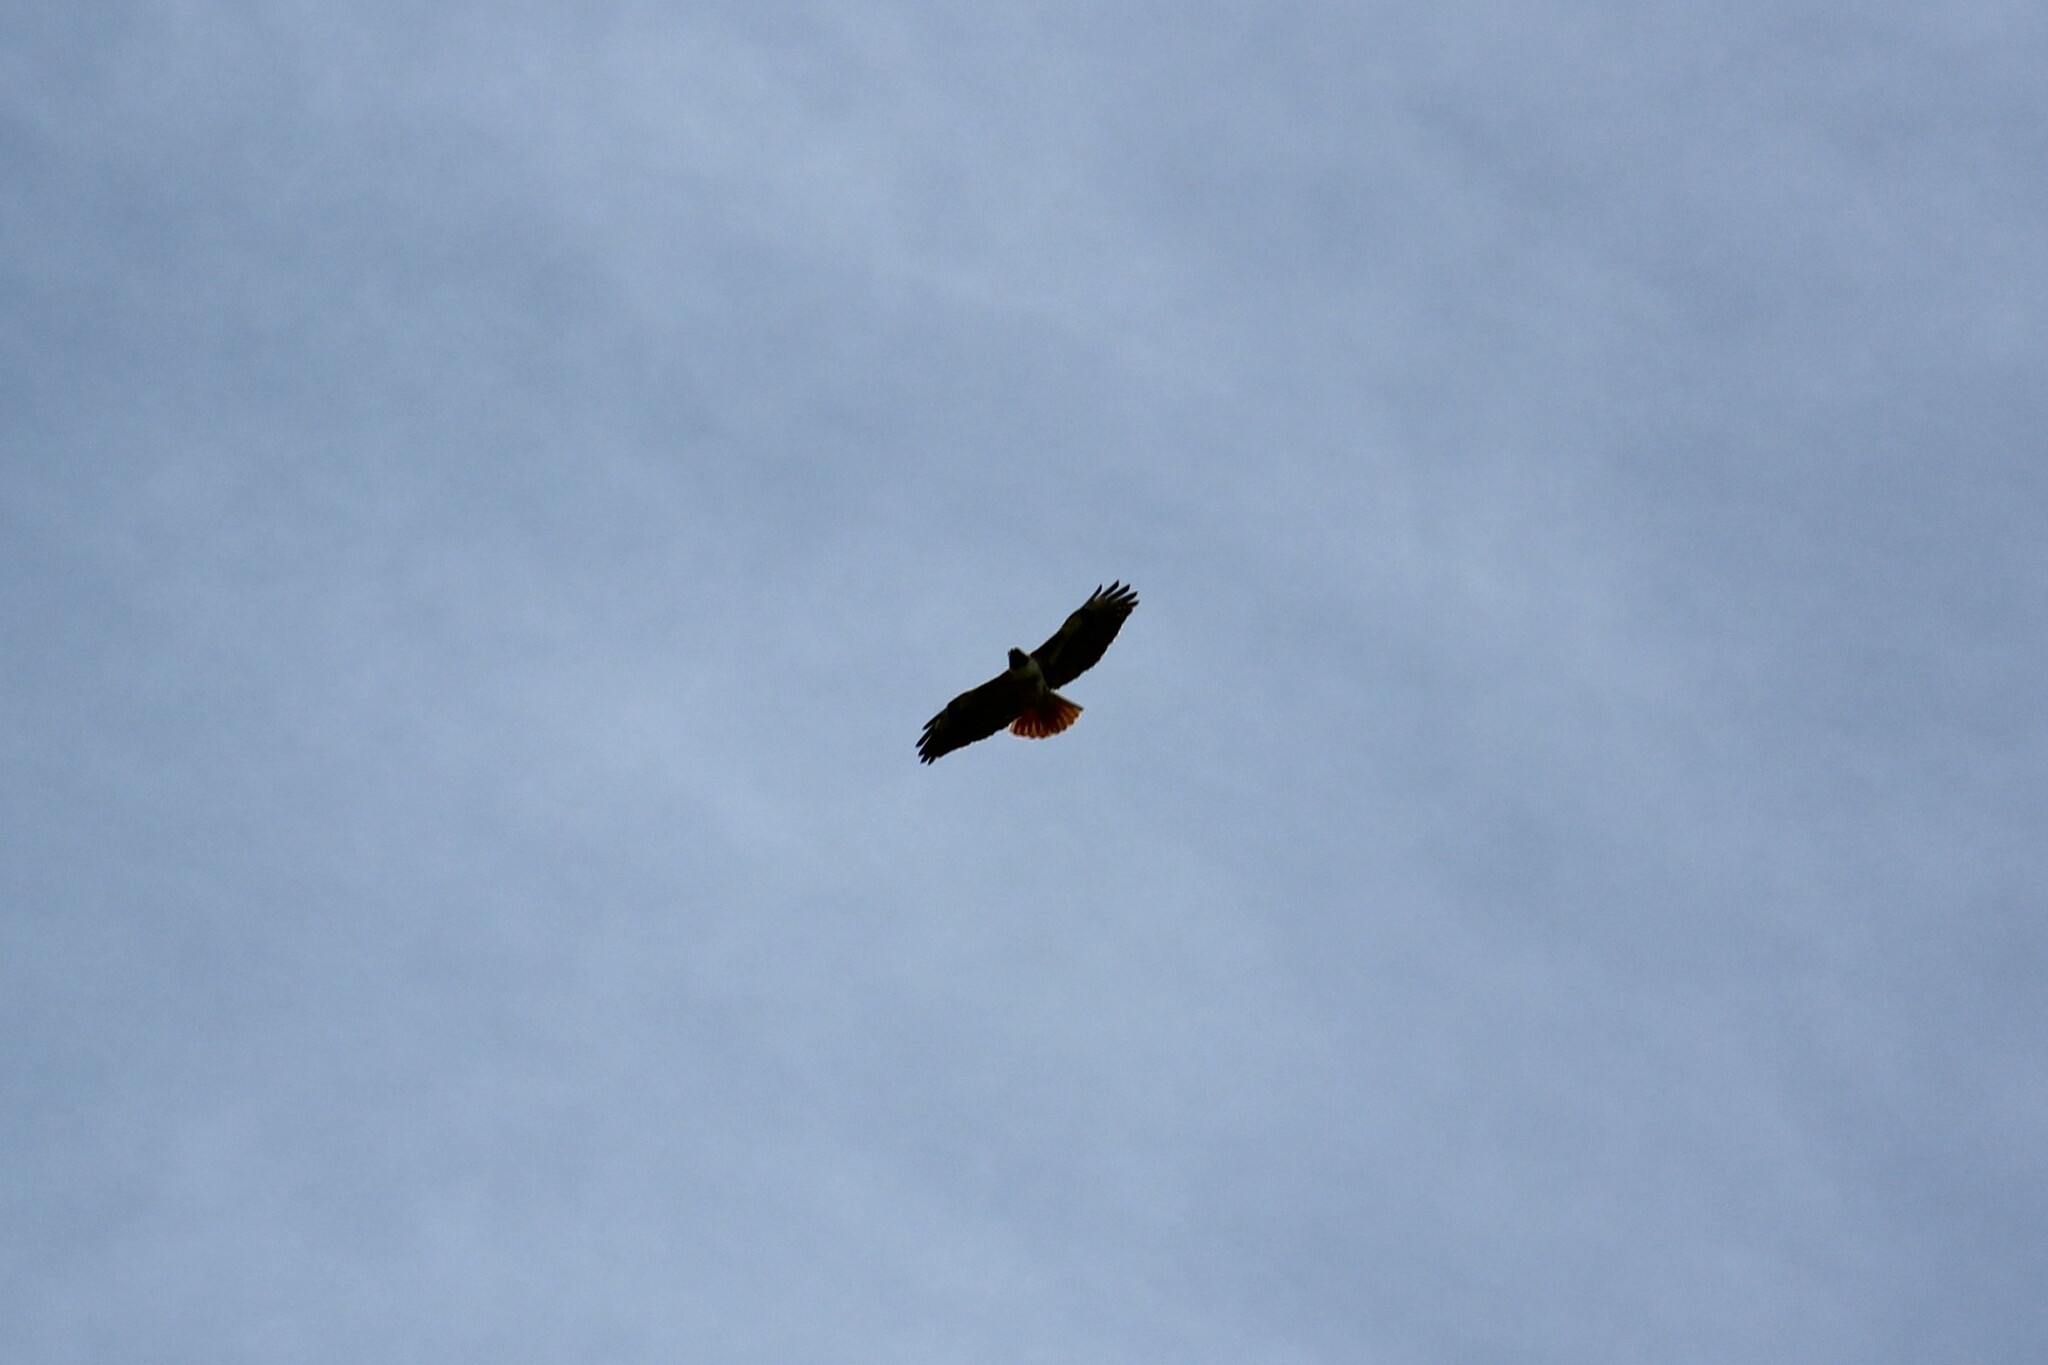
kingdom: Animalia
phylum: Chordata
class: Aves
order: Accipitriformes
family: Accipitridae
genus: Buteo
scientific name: Buteo jamaicensis
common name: Red-tailed hawk
